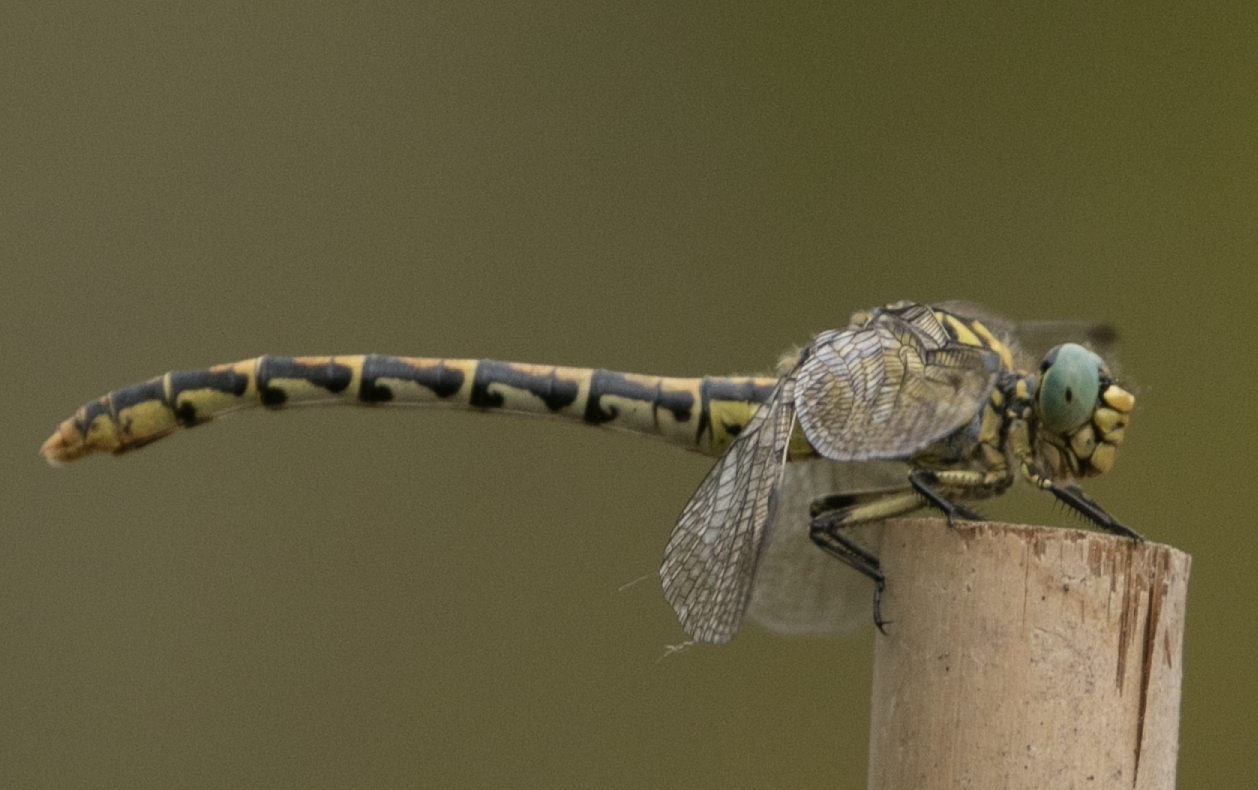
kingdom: Animalia
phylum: Arthropoda
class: Insecta
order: Odonata
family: Gomphidae
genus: Onychogomphus
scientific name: Onychogomphus forcipatus
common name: Small pincertail
